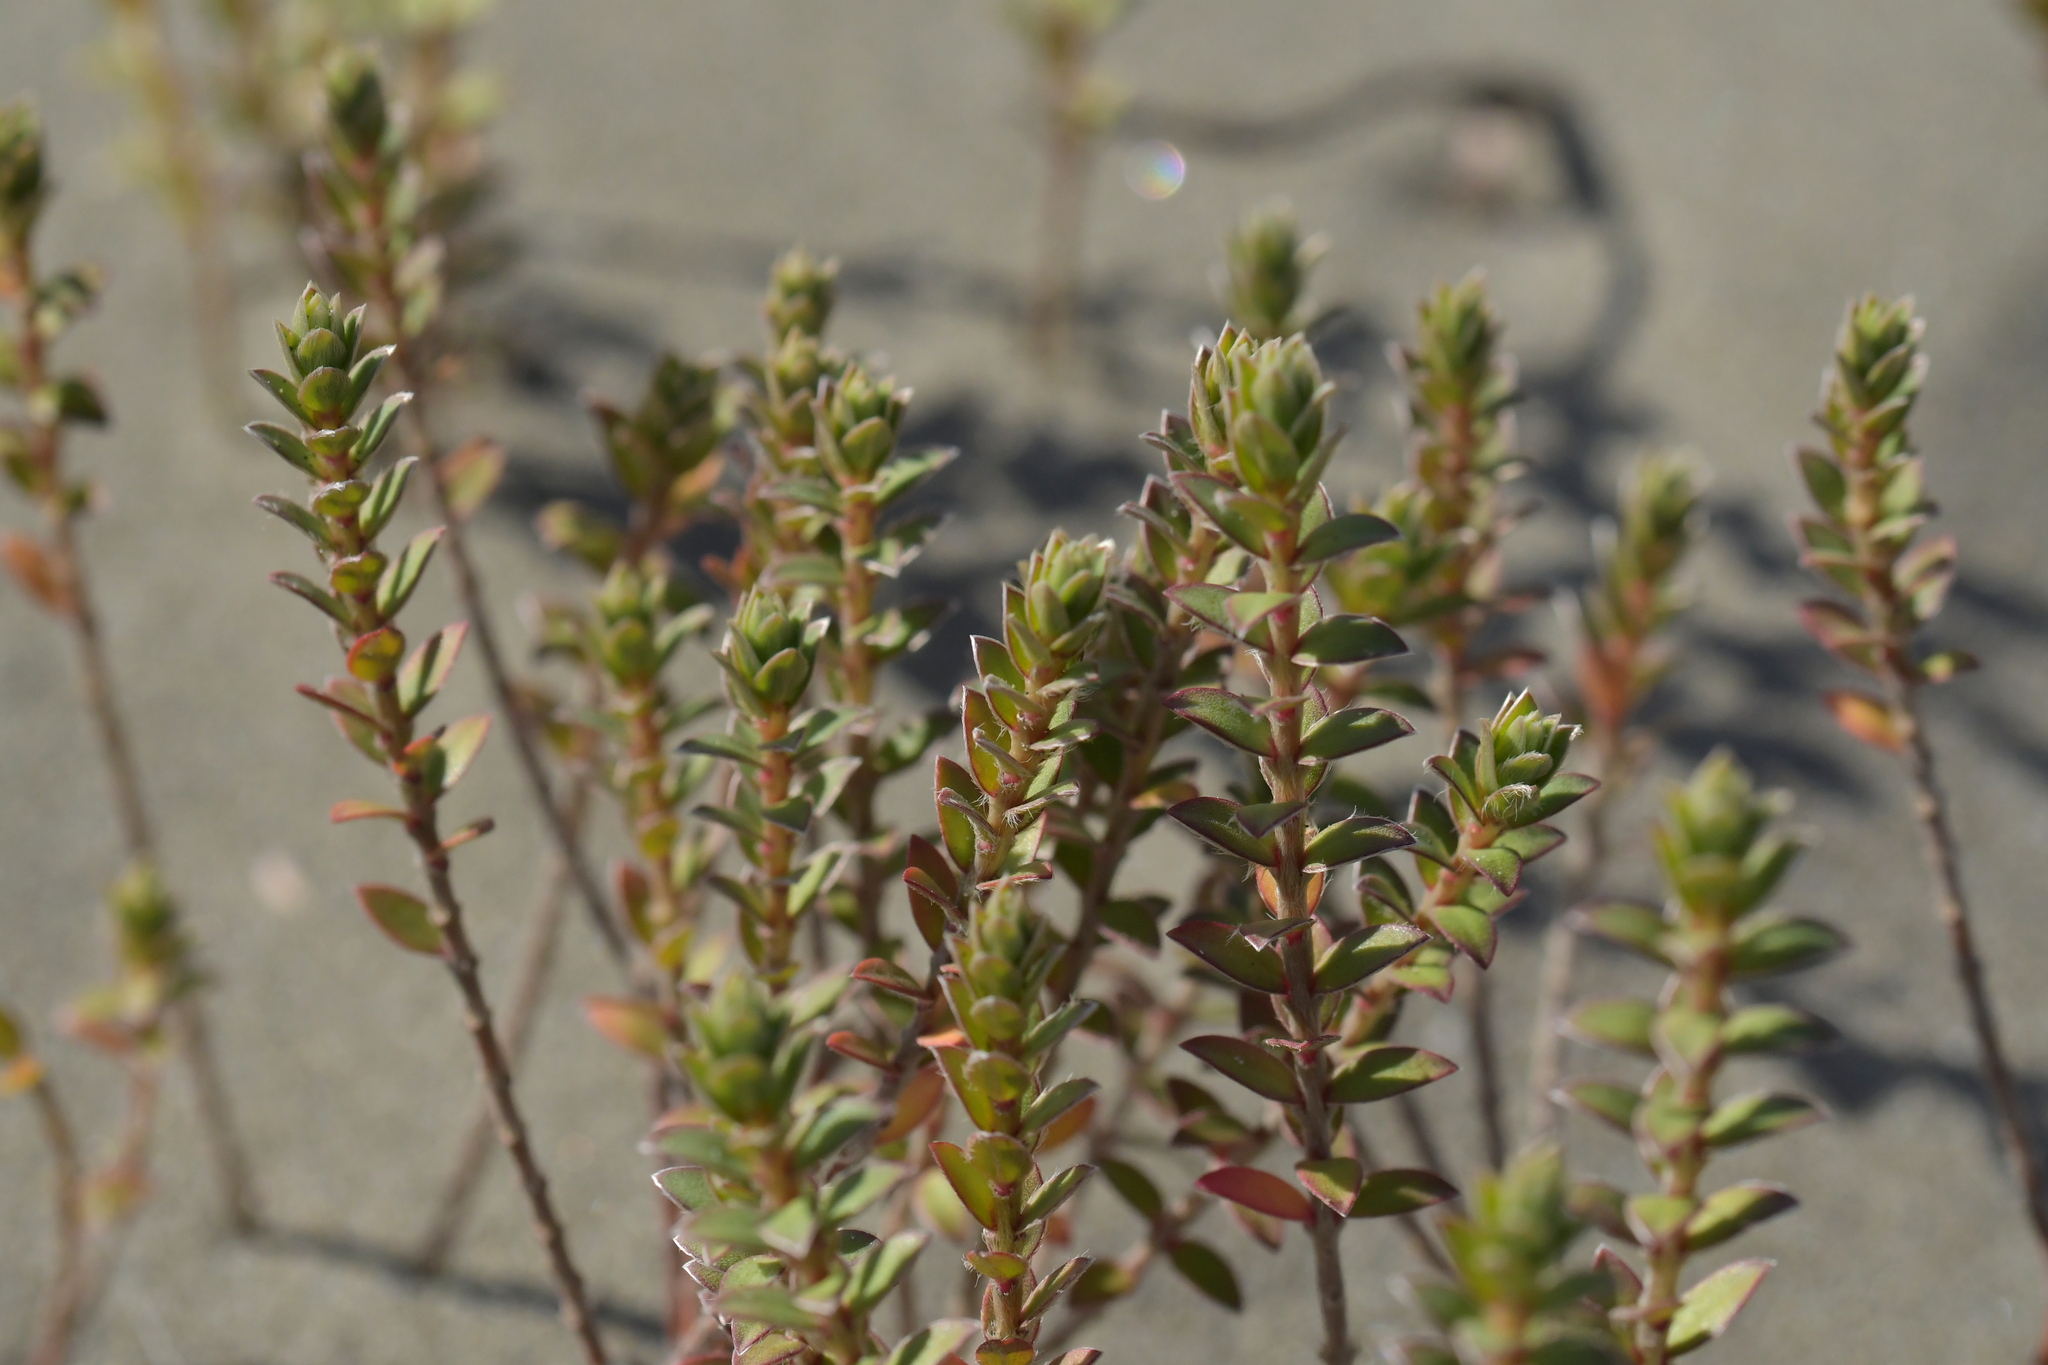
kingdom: Plantae
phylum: Tracheophyta
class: Magnoliopsida
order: Malvales
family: Thymelaeaceae
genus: Pimelea
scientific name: Pimelea villosa
